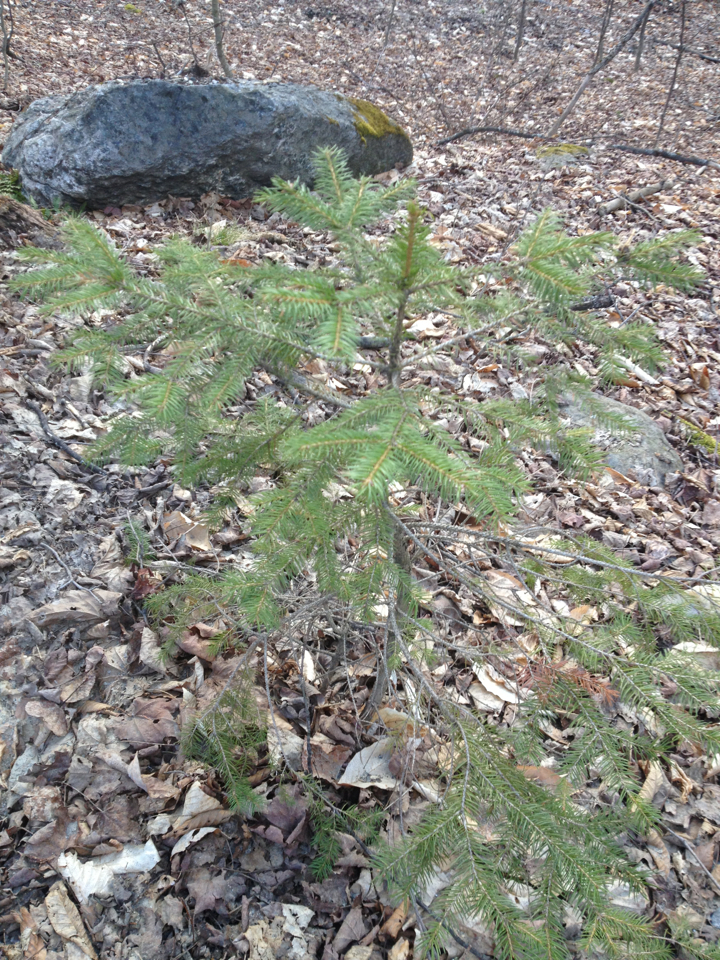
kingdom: Plantae
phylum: Tracheophyta
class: Pinopsida
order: Pinales
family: Pinaceae
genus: Picea
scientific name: Picea rubens
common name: Red spruce
